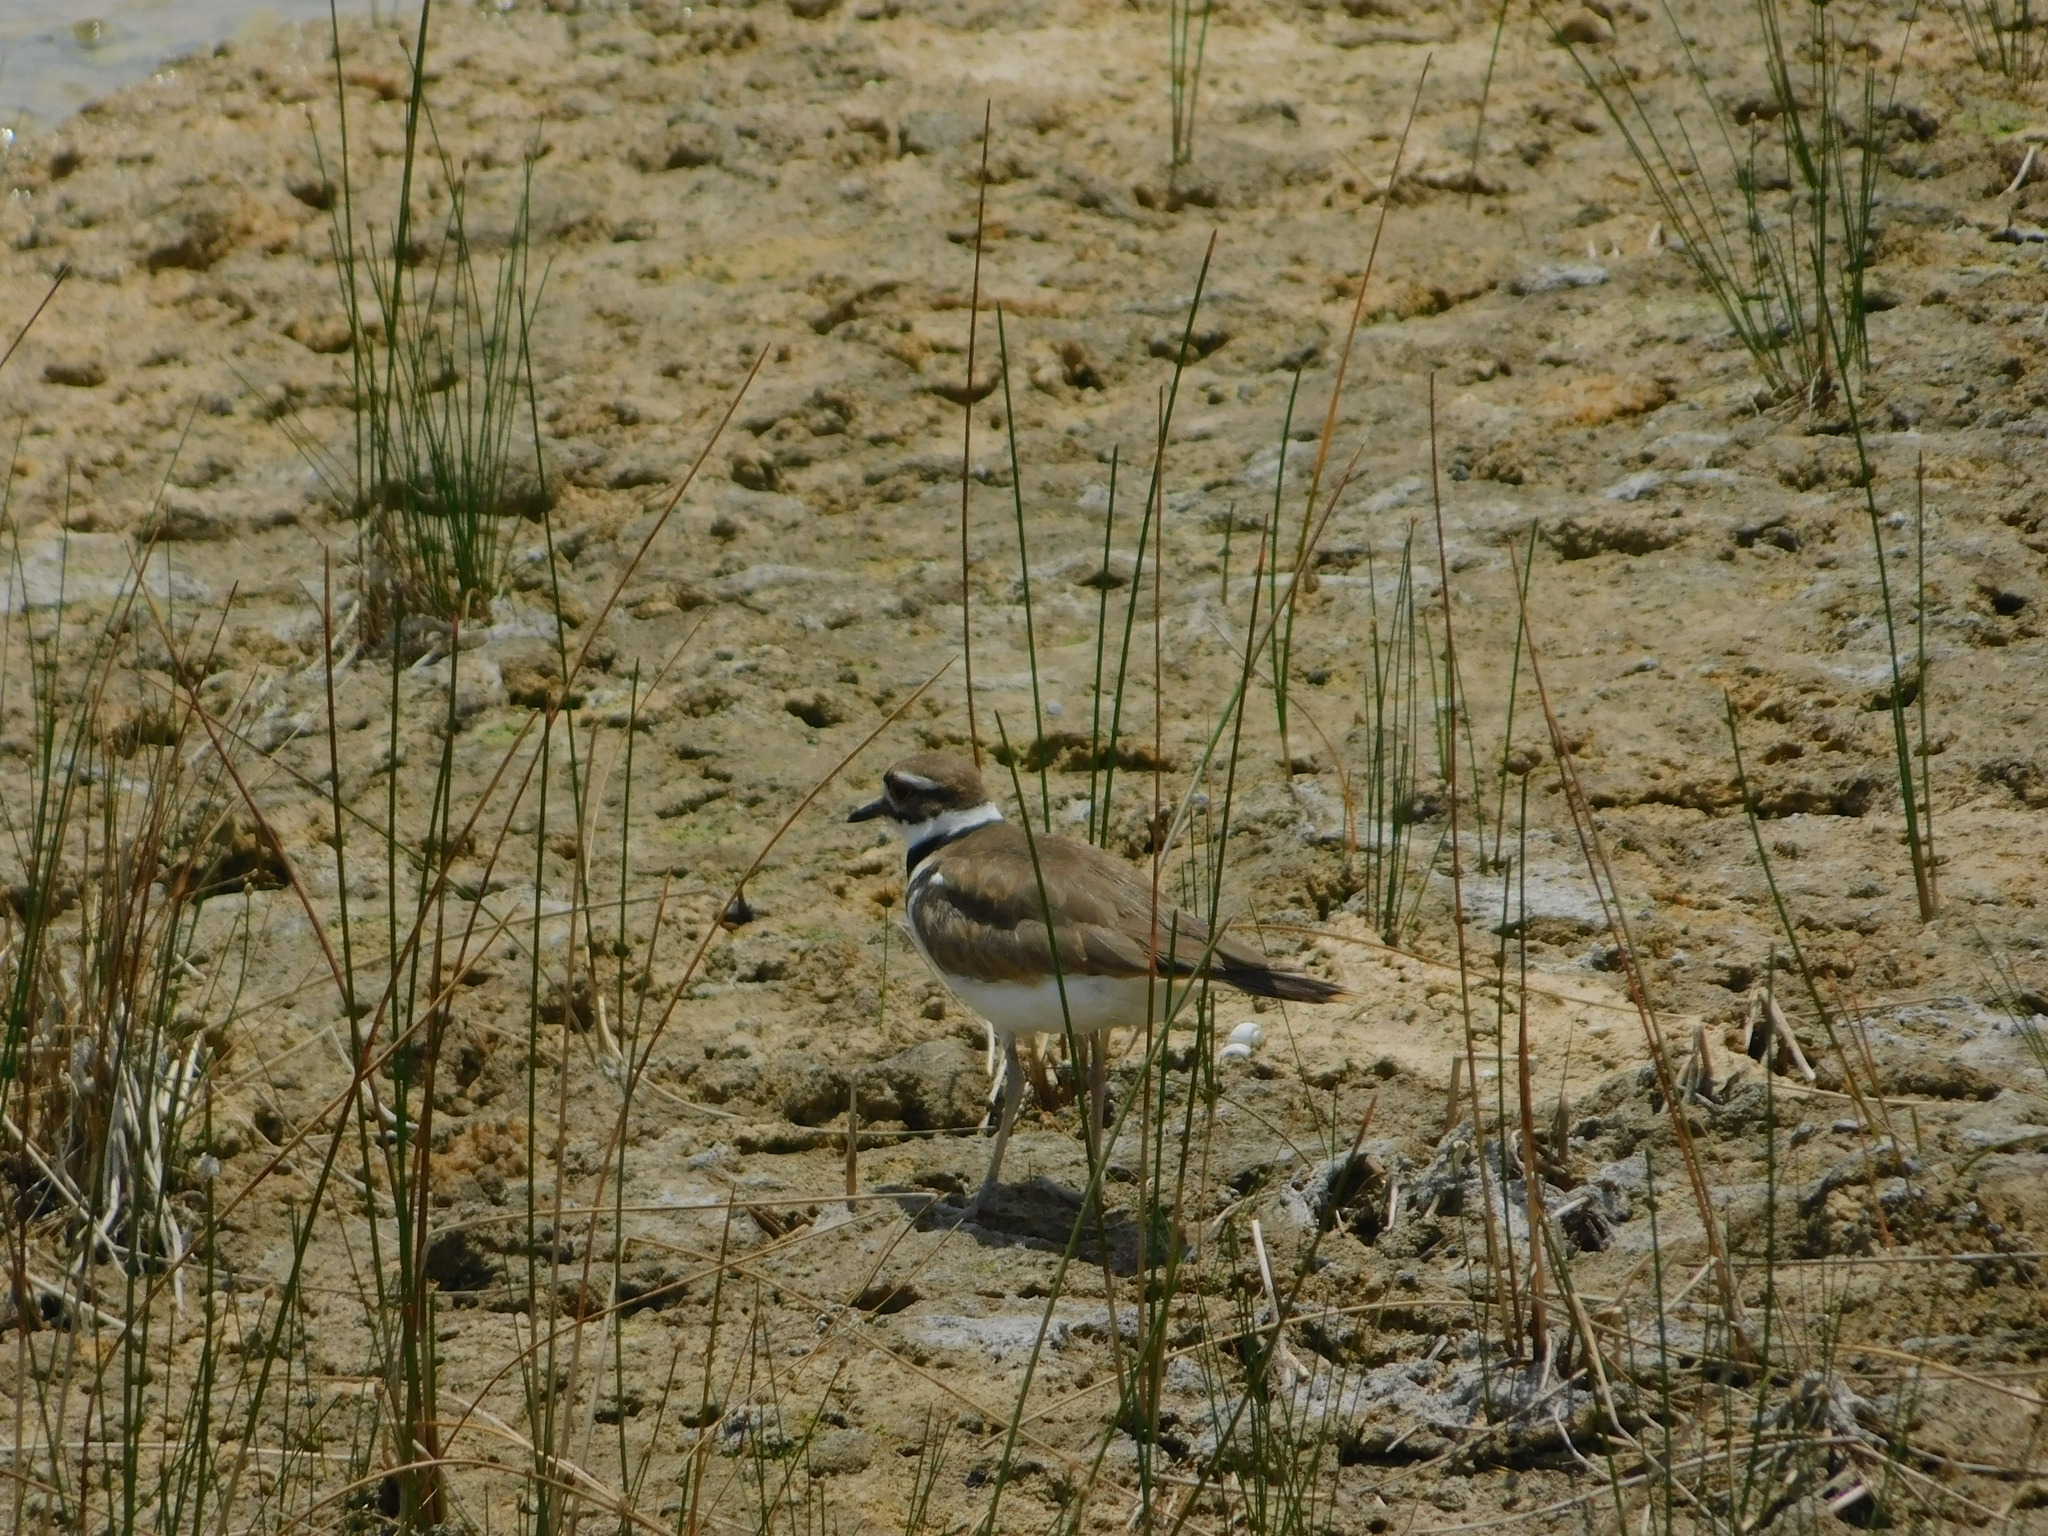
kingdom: Animalia
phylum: Chordata
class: Aves
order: Charadriiformes
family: Charadriidae
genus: Charadrius
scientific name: Charadrius vociferus
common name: Killdeer
